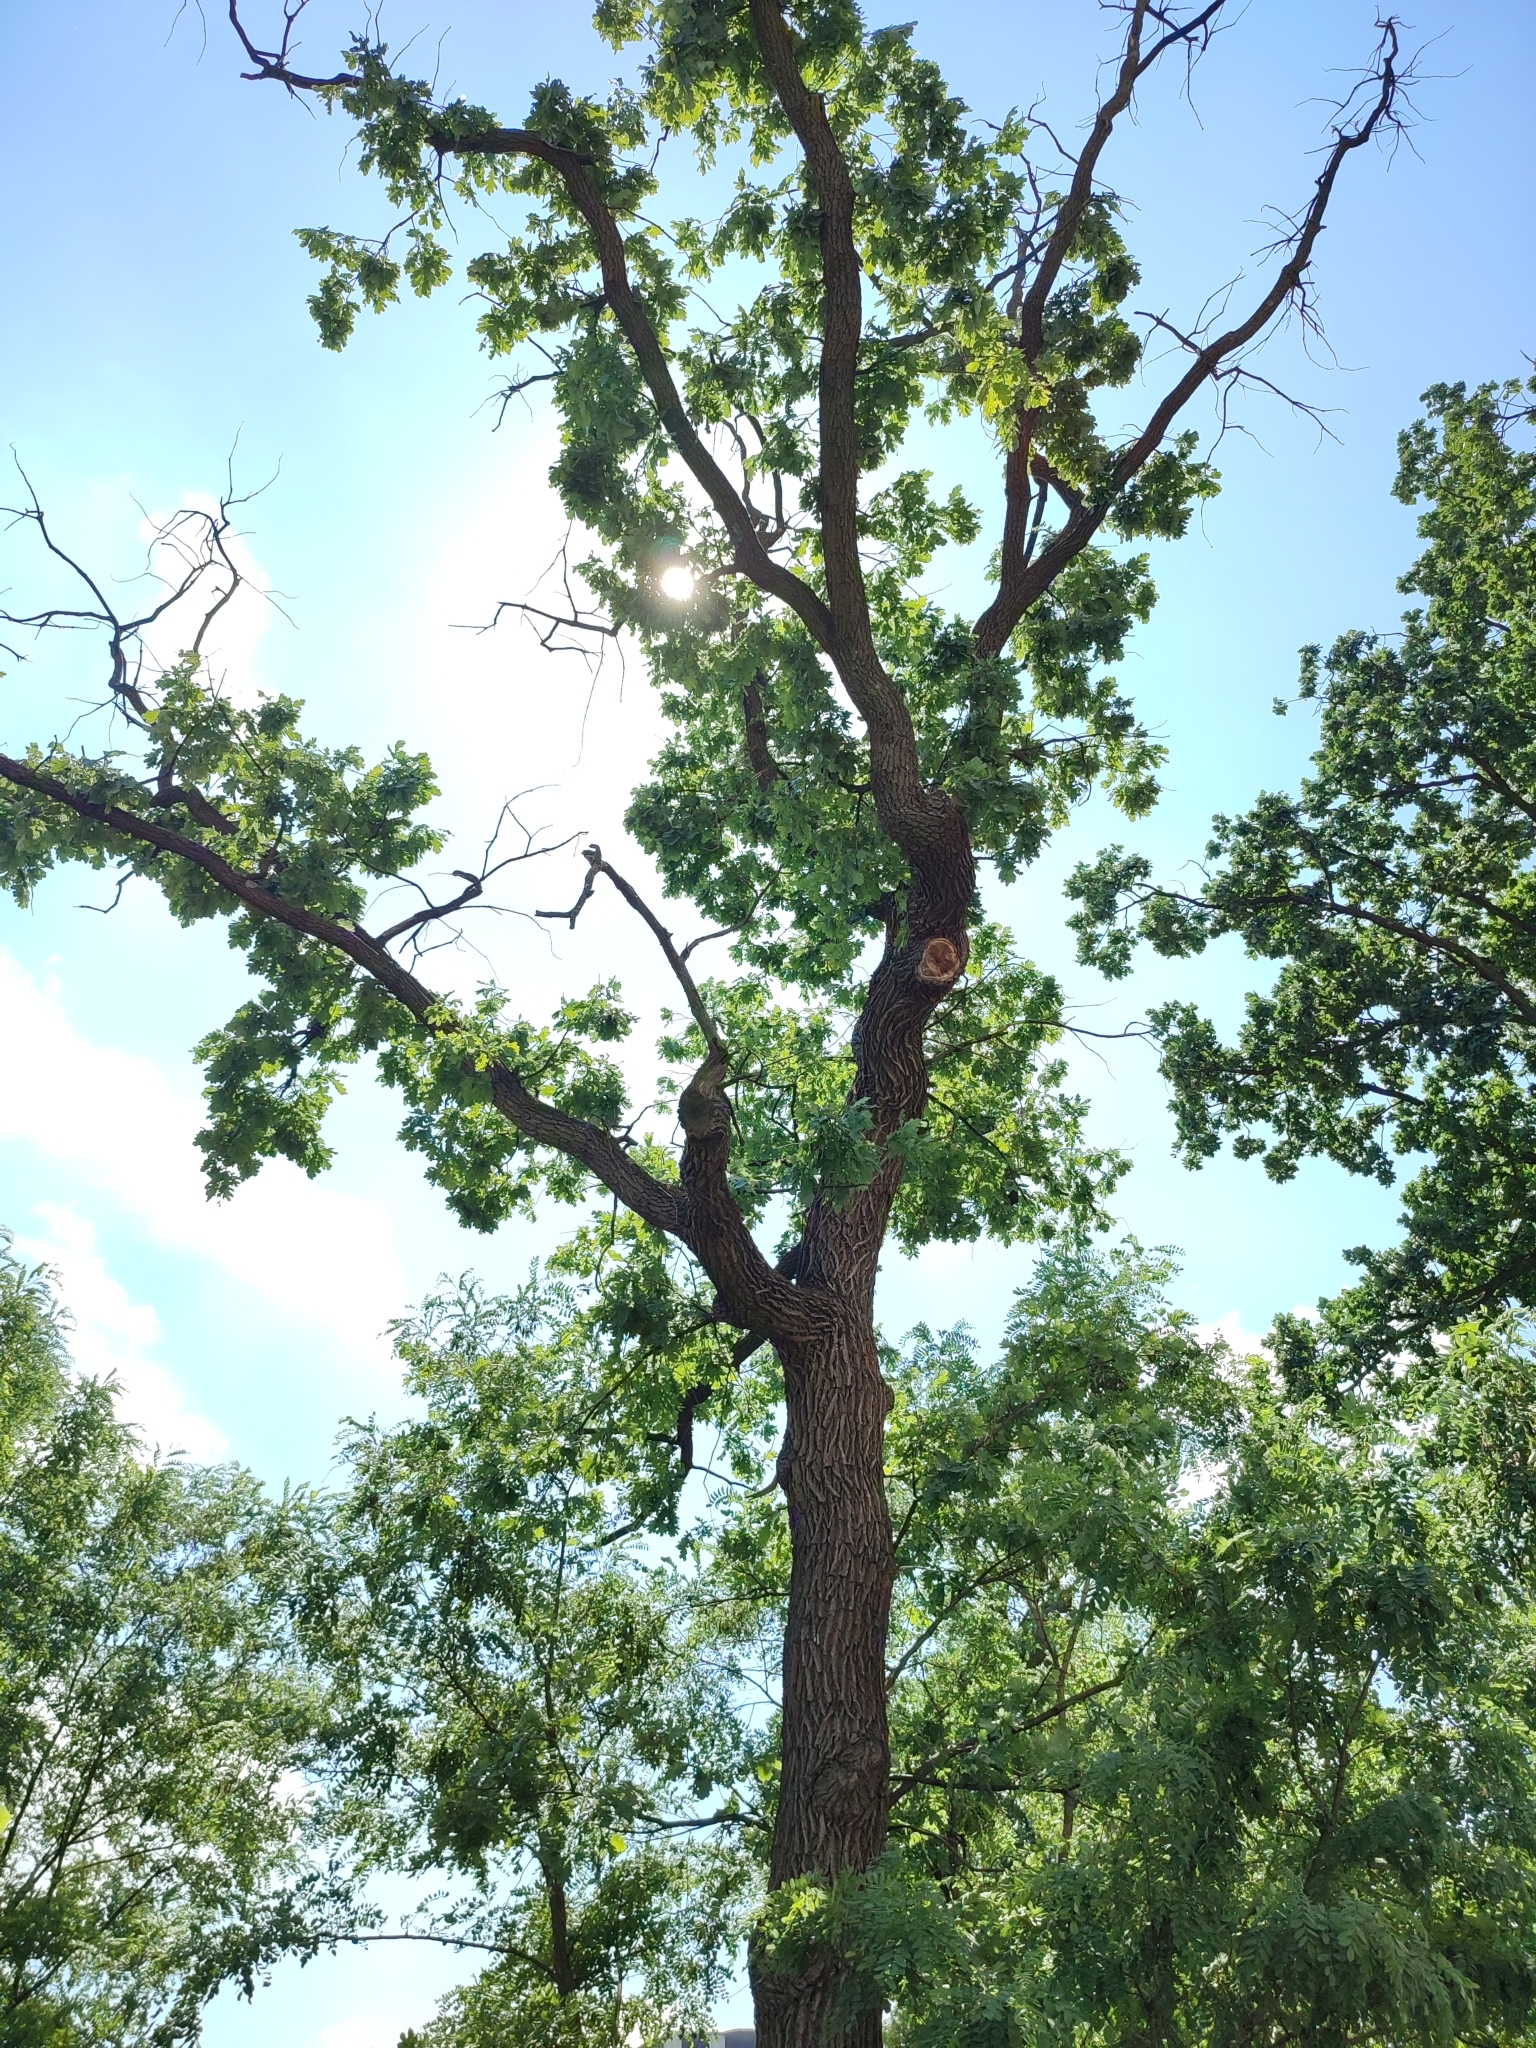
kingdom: Plantae
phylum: Tracheophyta
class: Magnoliopsida
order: Fagales
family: Fagaceae
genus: Quercus
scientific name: Quercus robur
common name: Pedunculate oak
